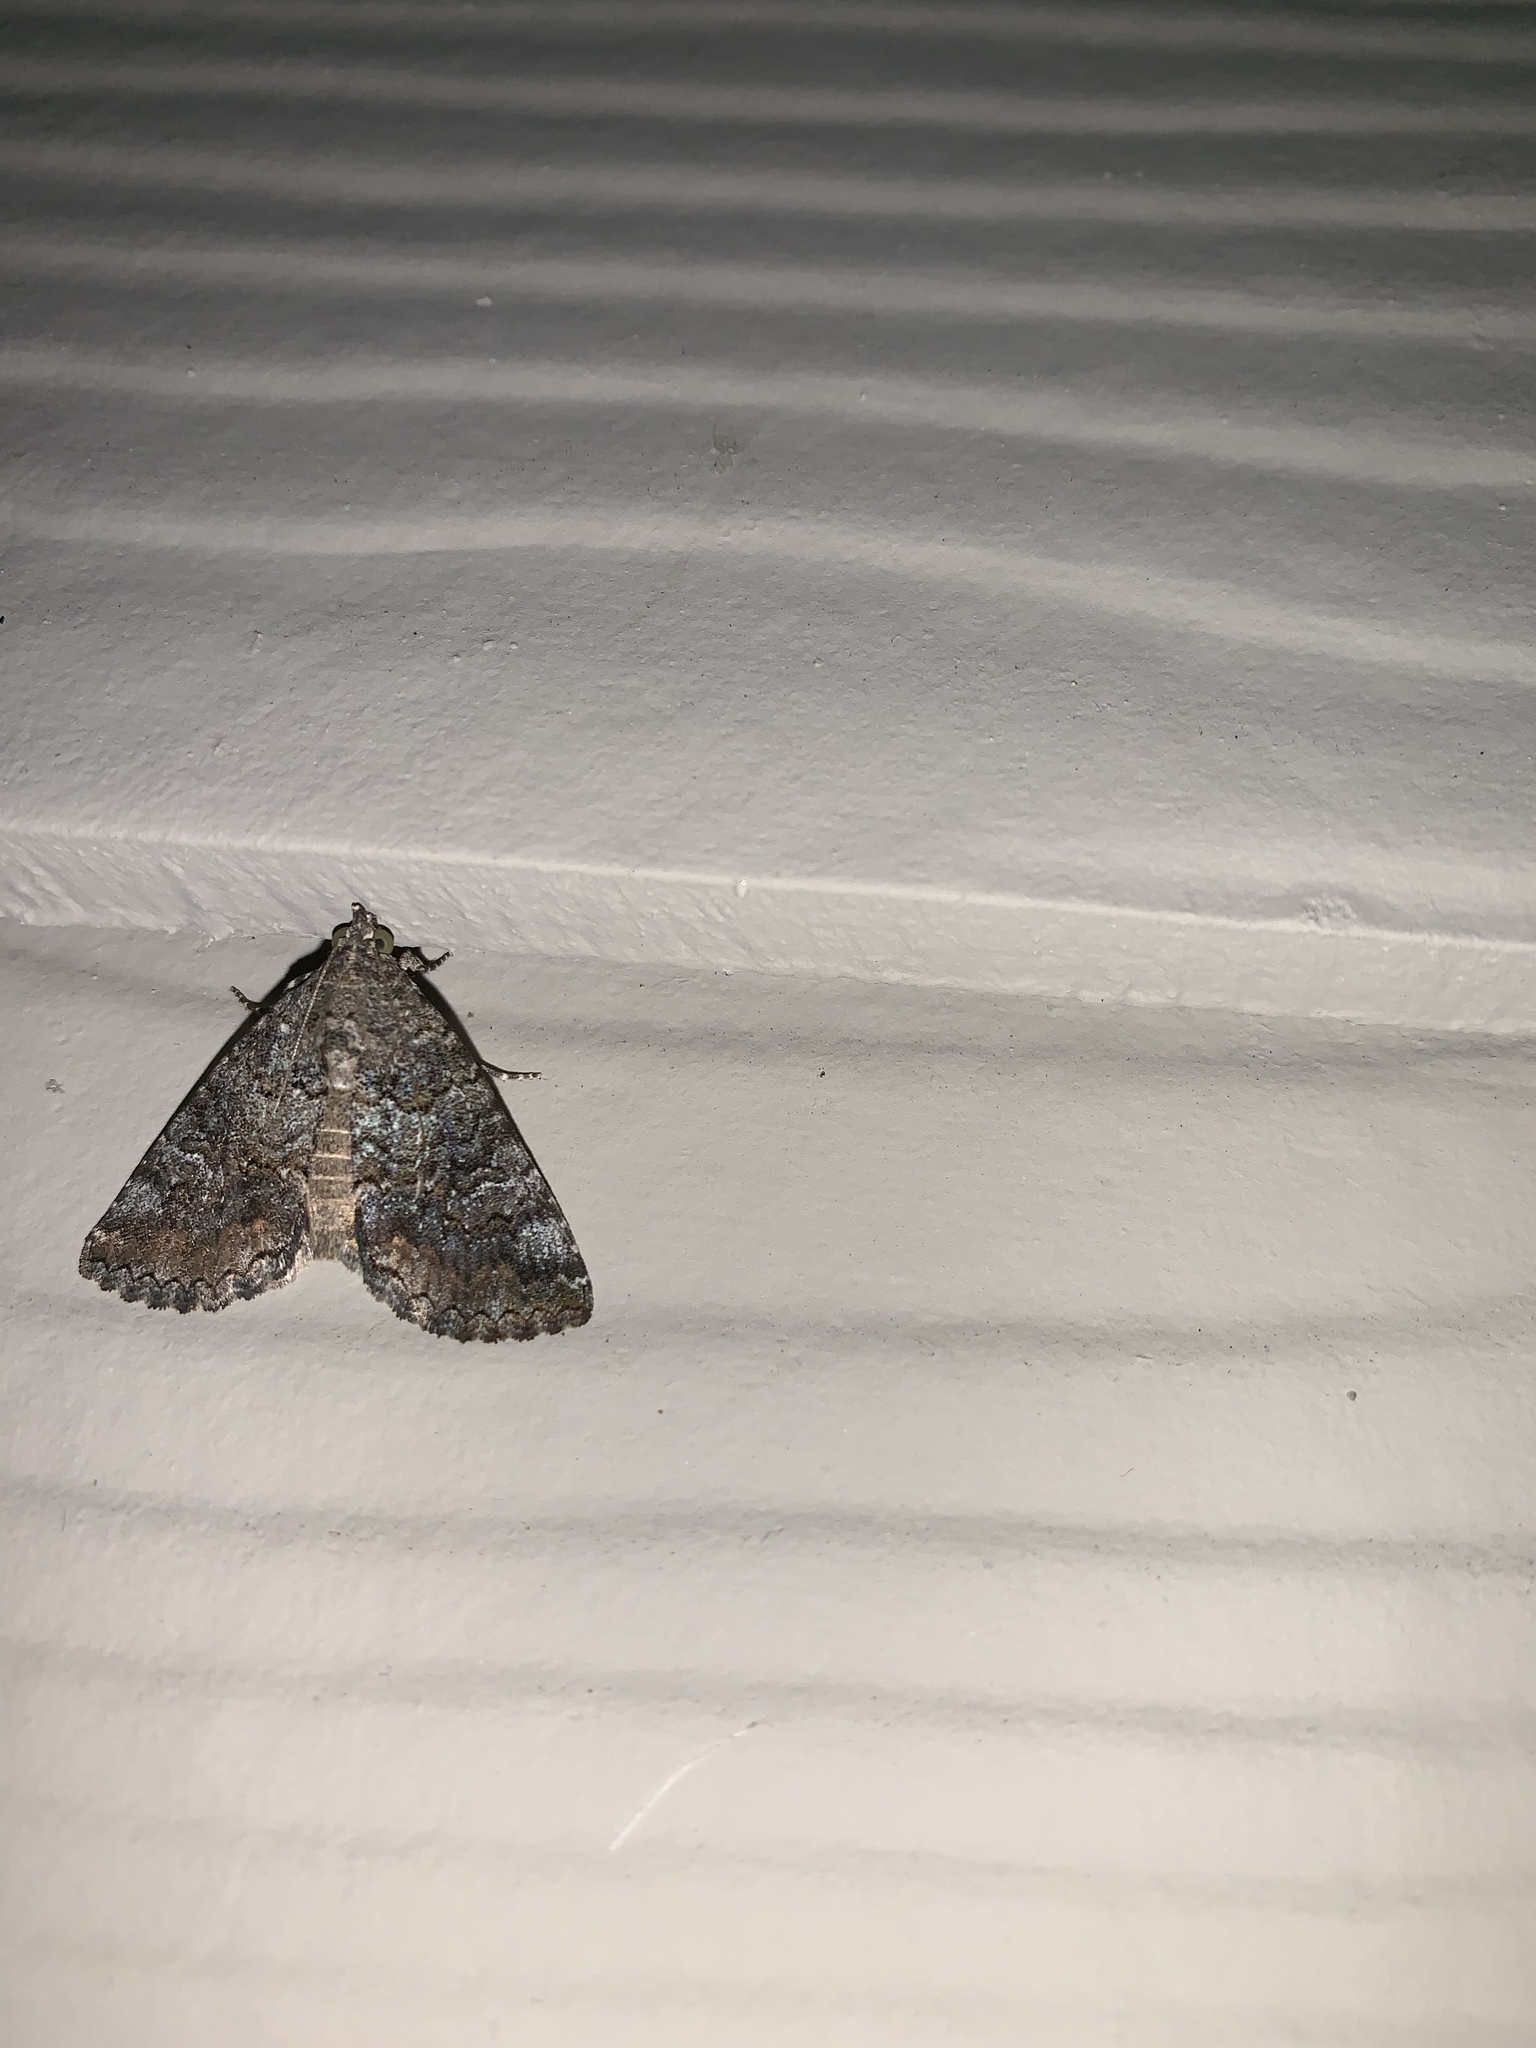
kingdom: Animalia
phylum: Arthropoda
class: Insecta
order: Lepidoptera
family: Erebidae
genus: Eubolina
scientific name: Eubolina impartialis
